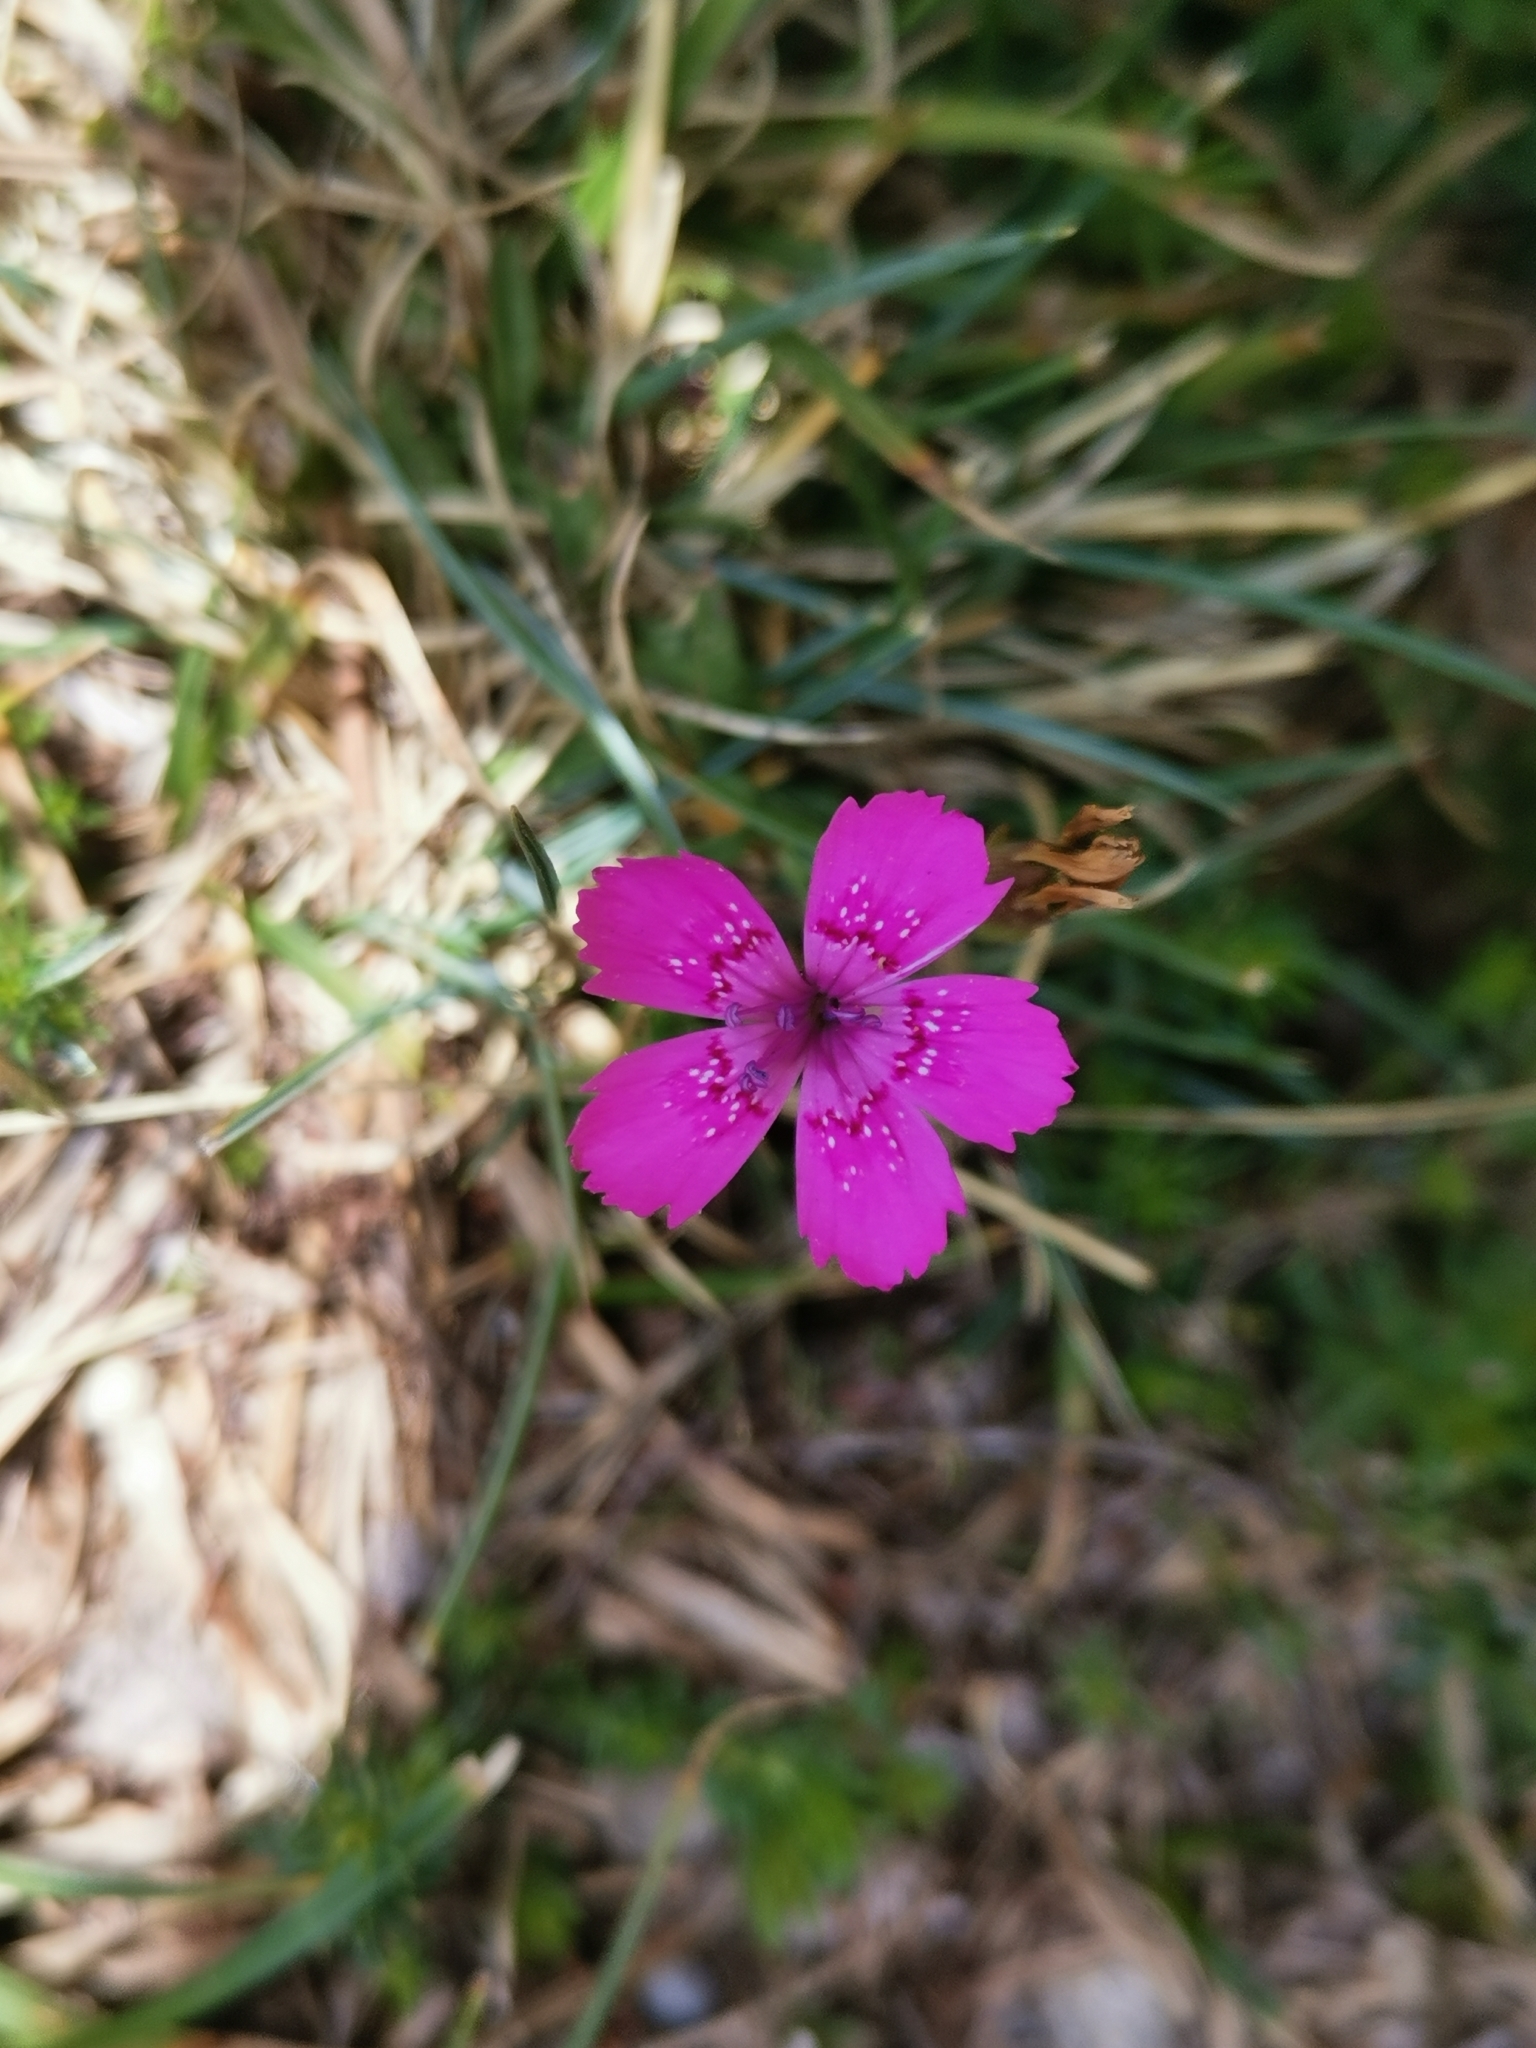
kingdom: Plantae
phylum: Tracheophyta
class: Magnoliopsida
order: Caryophyllales
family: Caryophyllaceae
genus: Dianthus
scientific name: Dianthus deltoides
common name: Maiden pink
